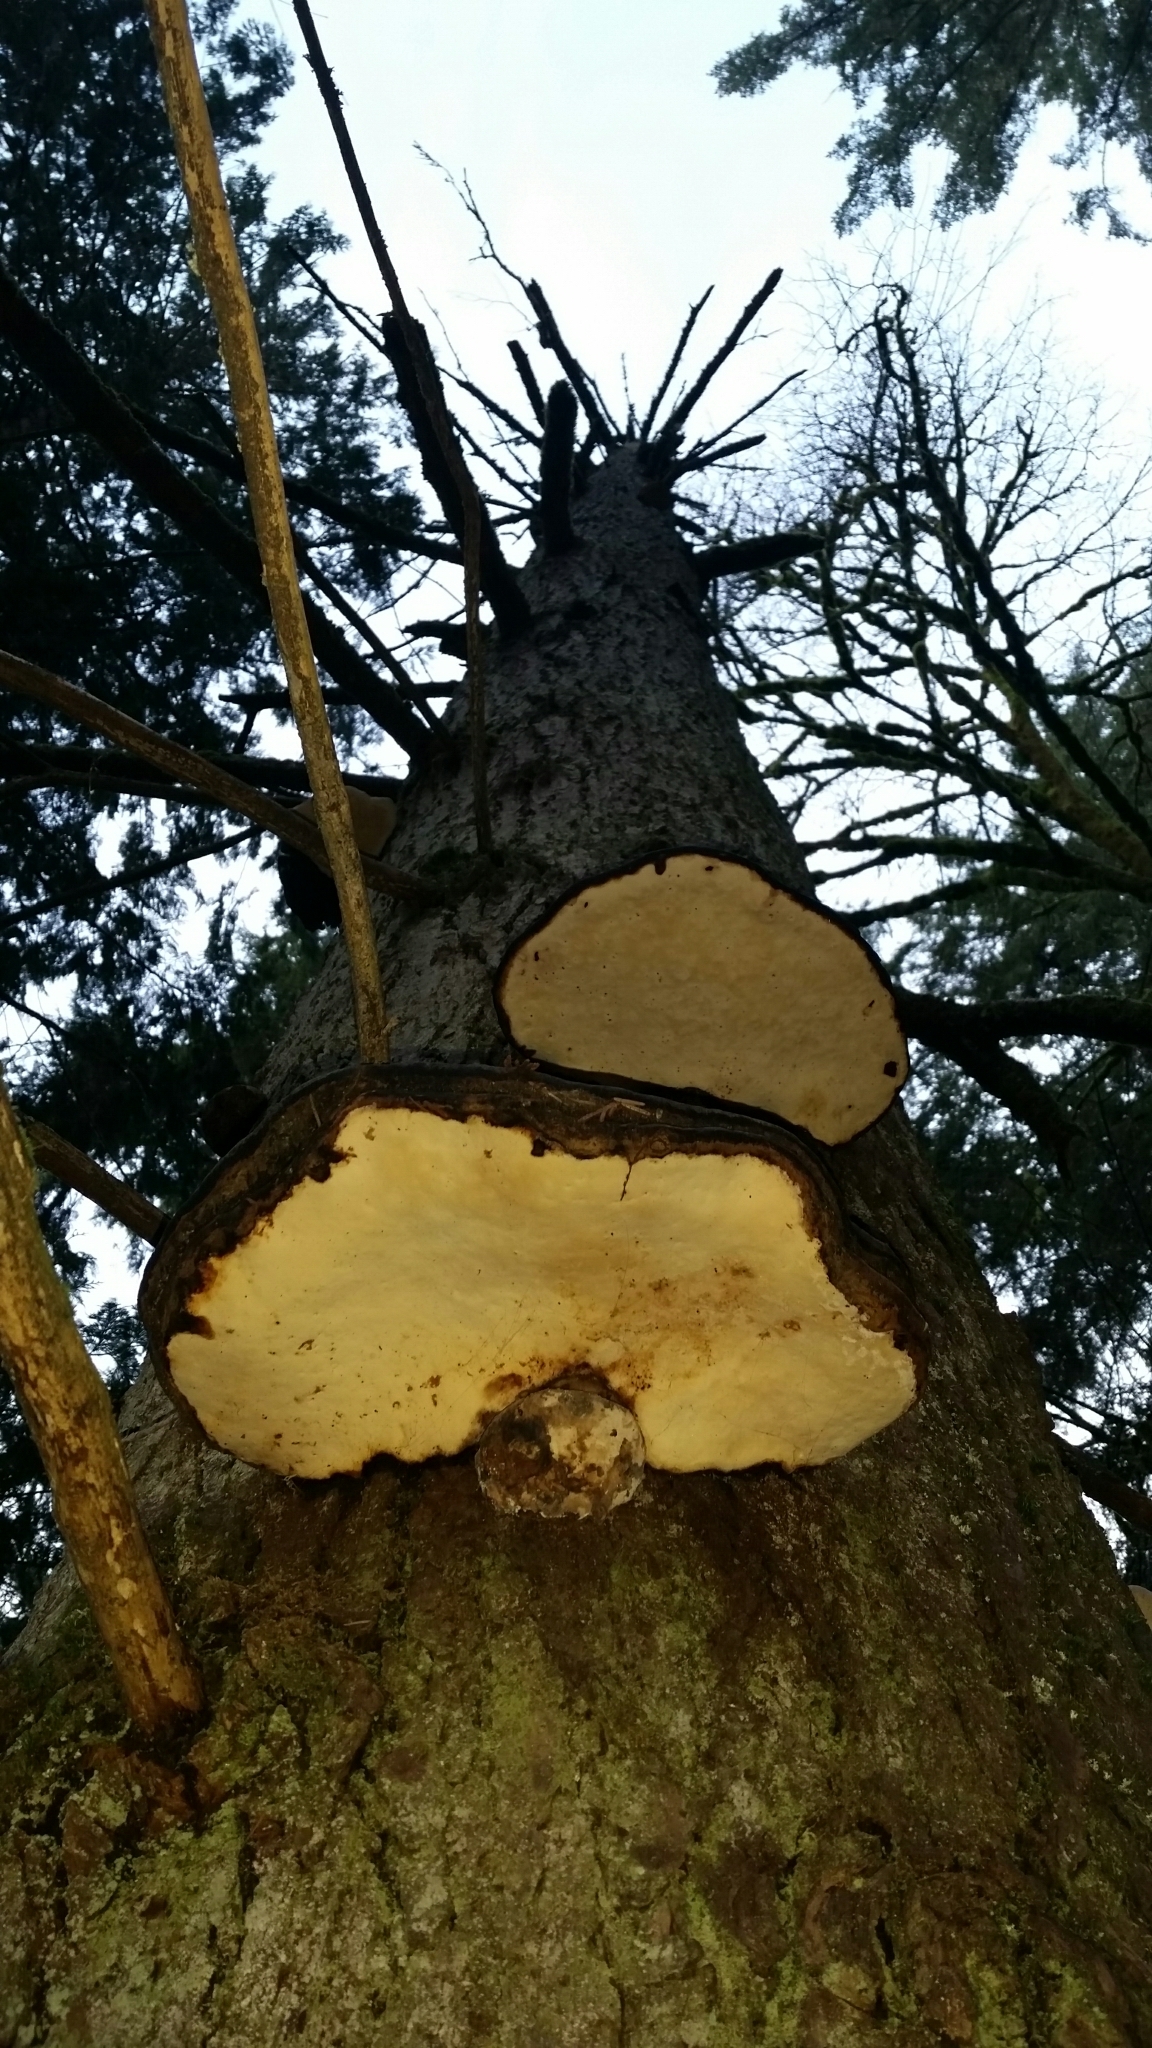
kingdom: Fungi
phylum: Basidiomycota
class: Agaricomycetes
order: Polyporales
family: Fomitopsidaceae
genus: Fomitopsis
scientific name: Fomitopsis ochracea
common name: American brown fomitopsis
